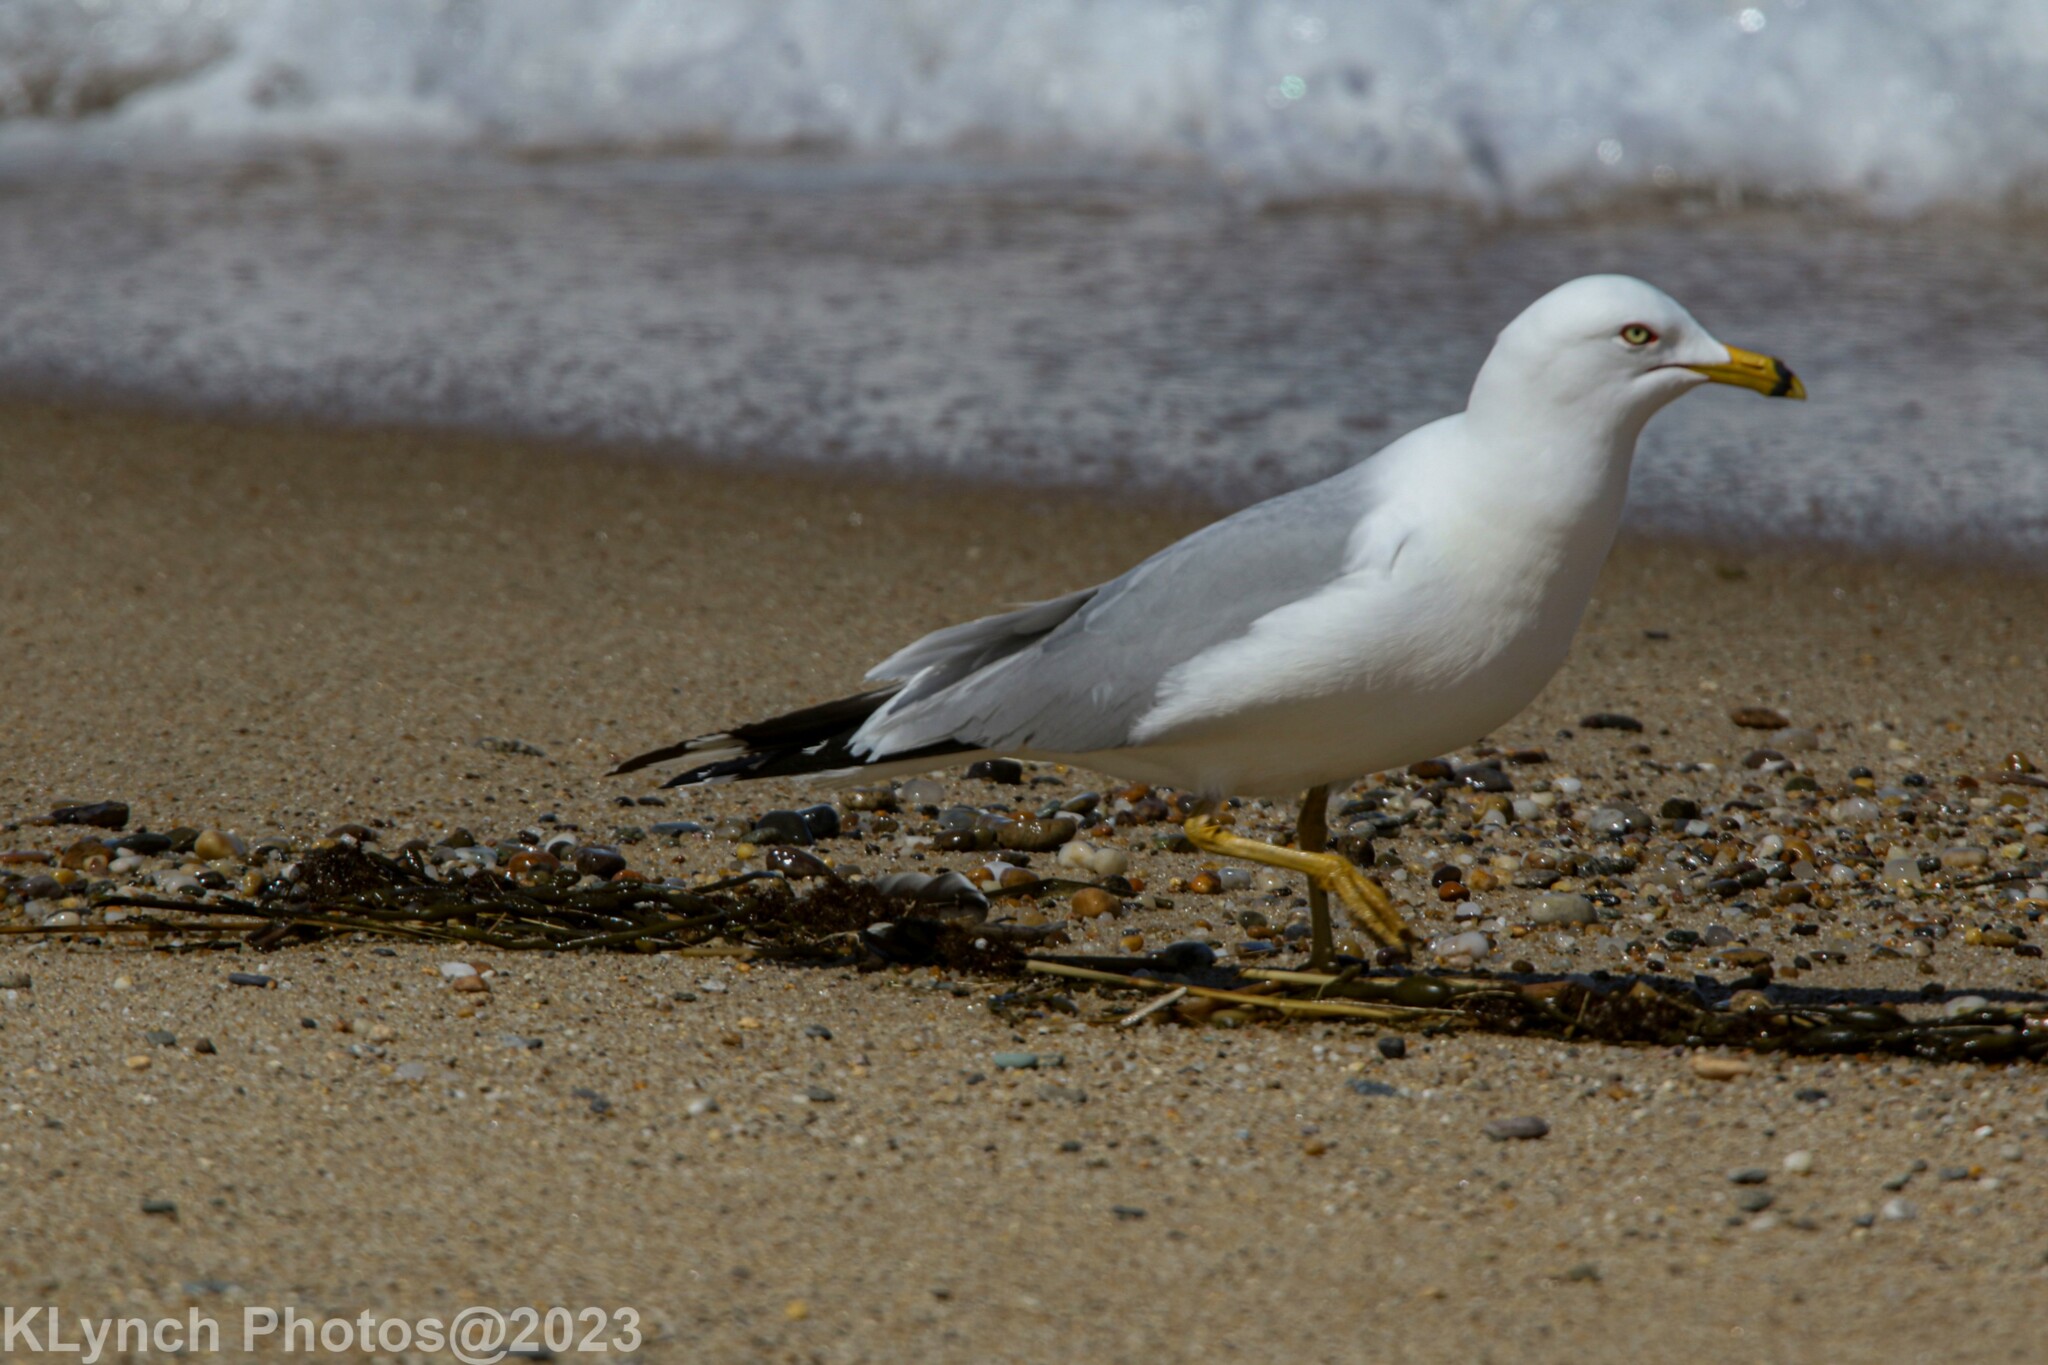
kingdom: Animalia
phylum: Chordata
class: Aves
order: Charadriiformes
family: Laridae
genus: Larus
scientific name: Larus delawarensis
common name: Ring-billed gull
